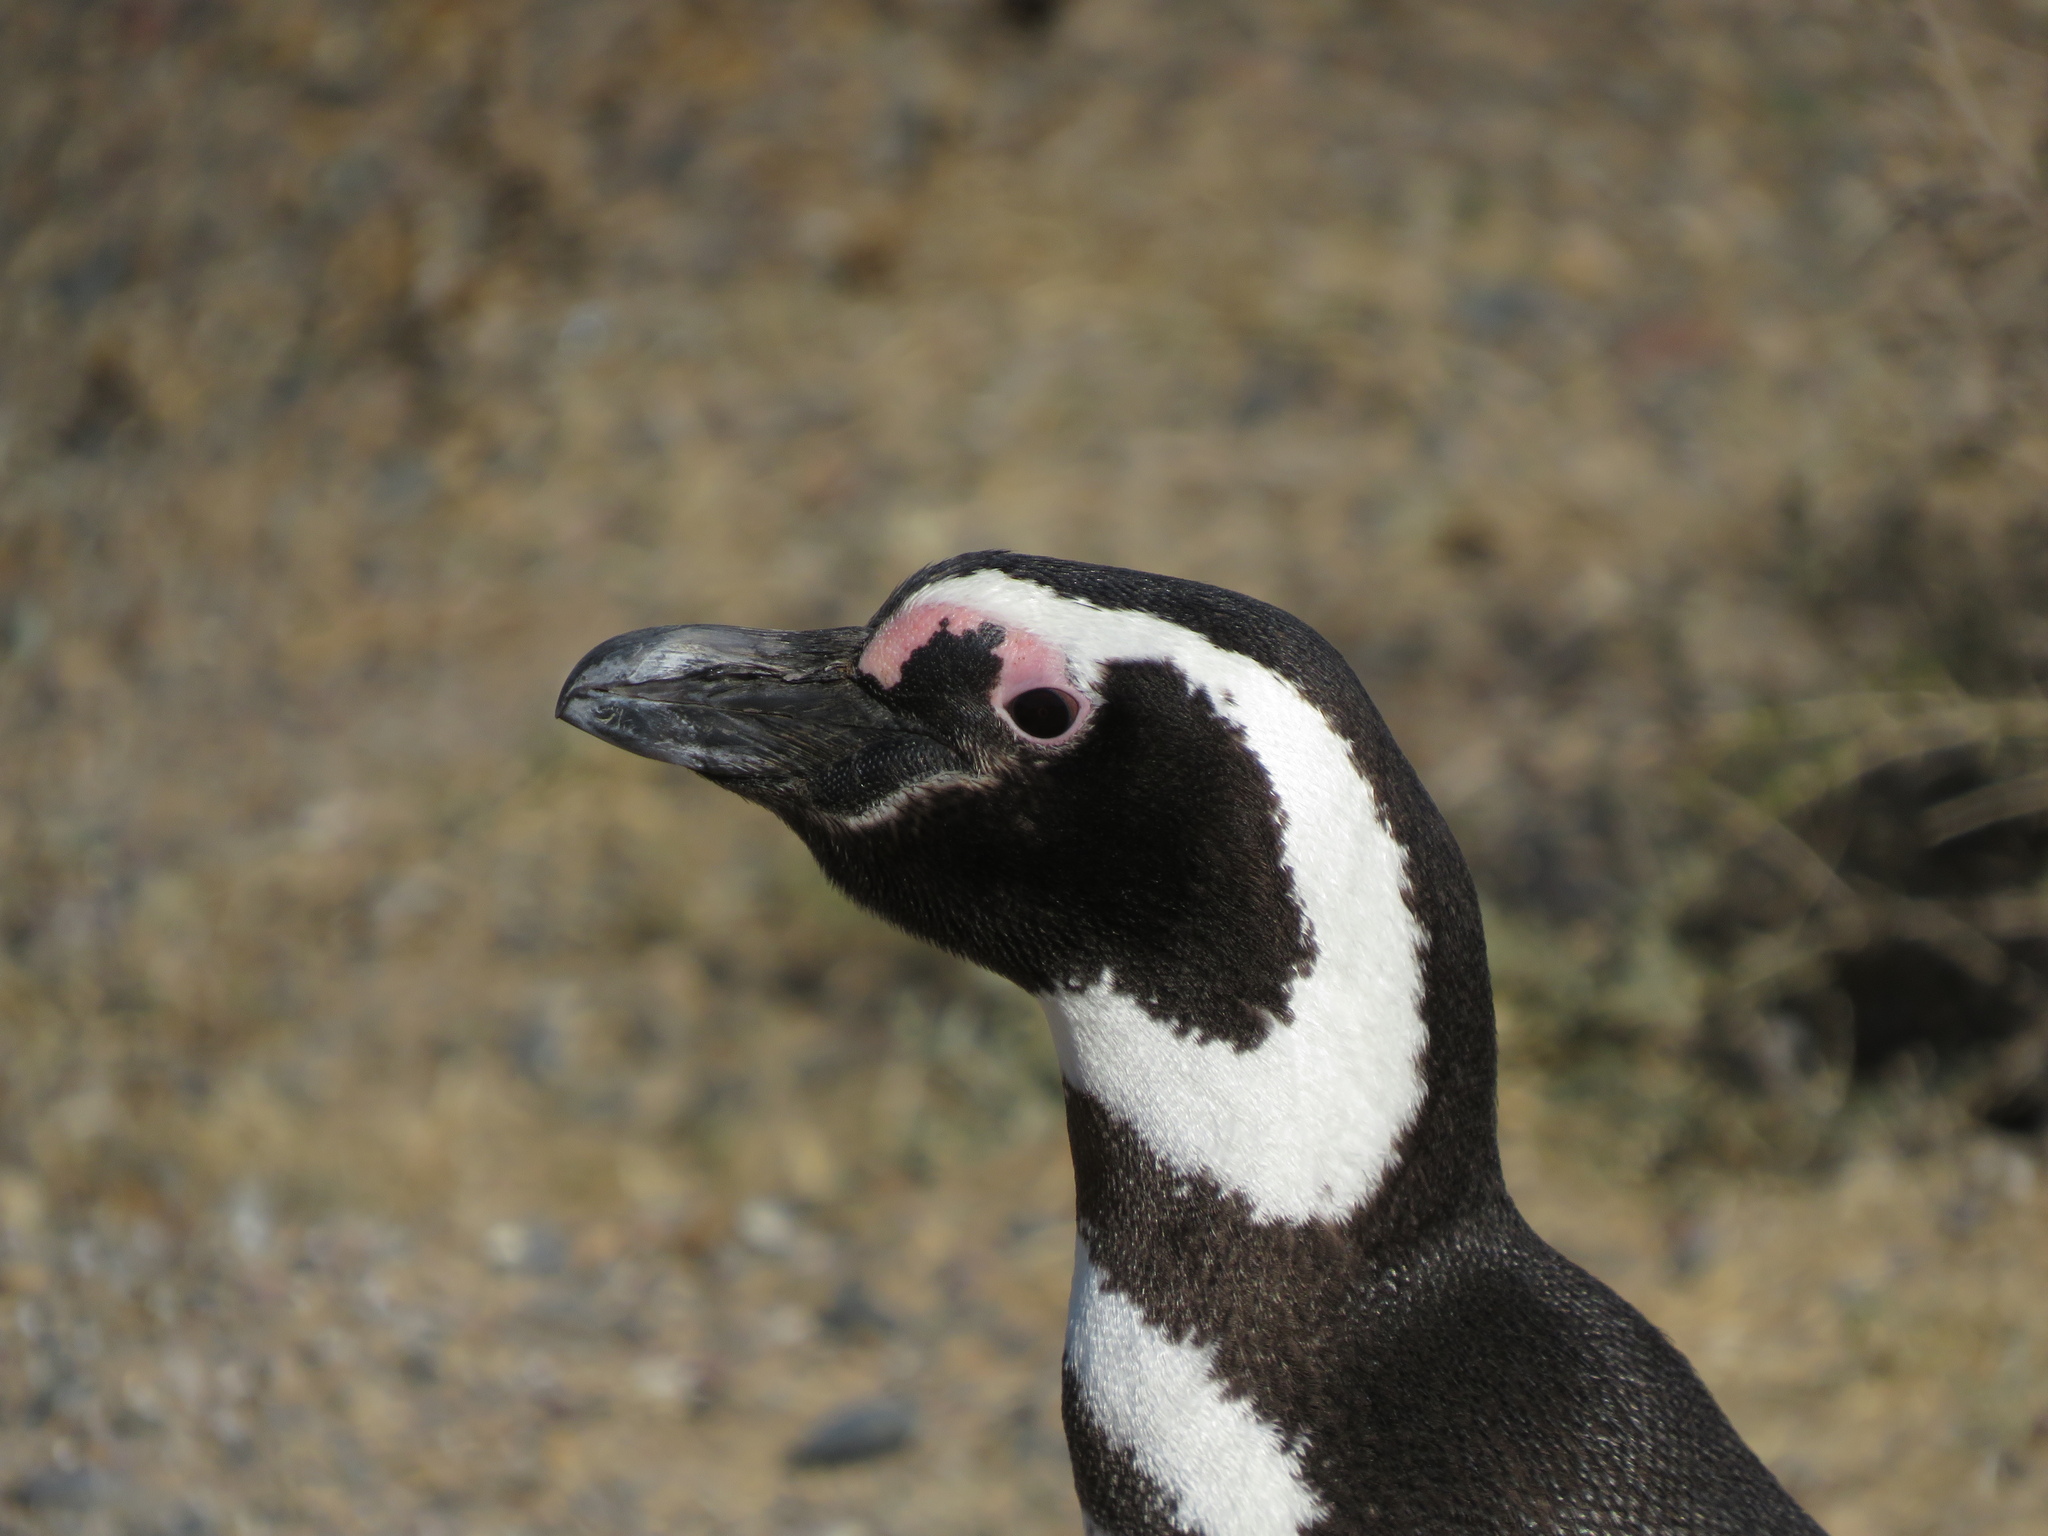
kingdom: Animalia
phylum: Chordata
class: Aves
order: Sphenisciformes
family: Spheniscidae
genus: Spheniscus
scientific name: Spheniscus magellanicus
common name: Magellanic penguin
